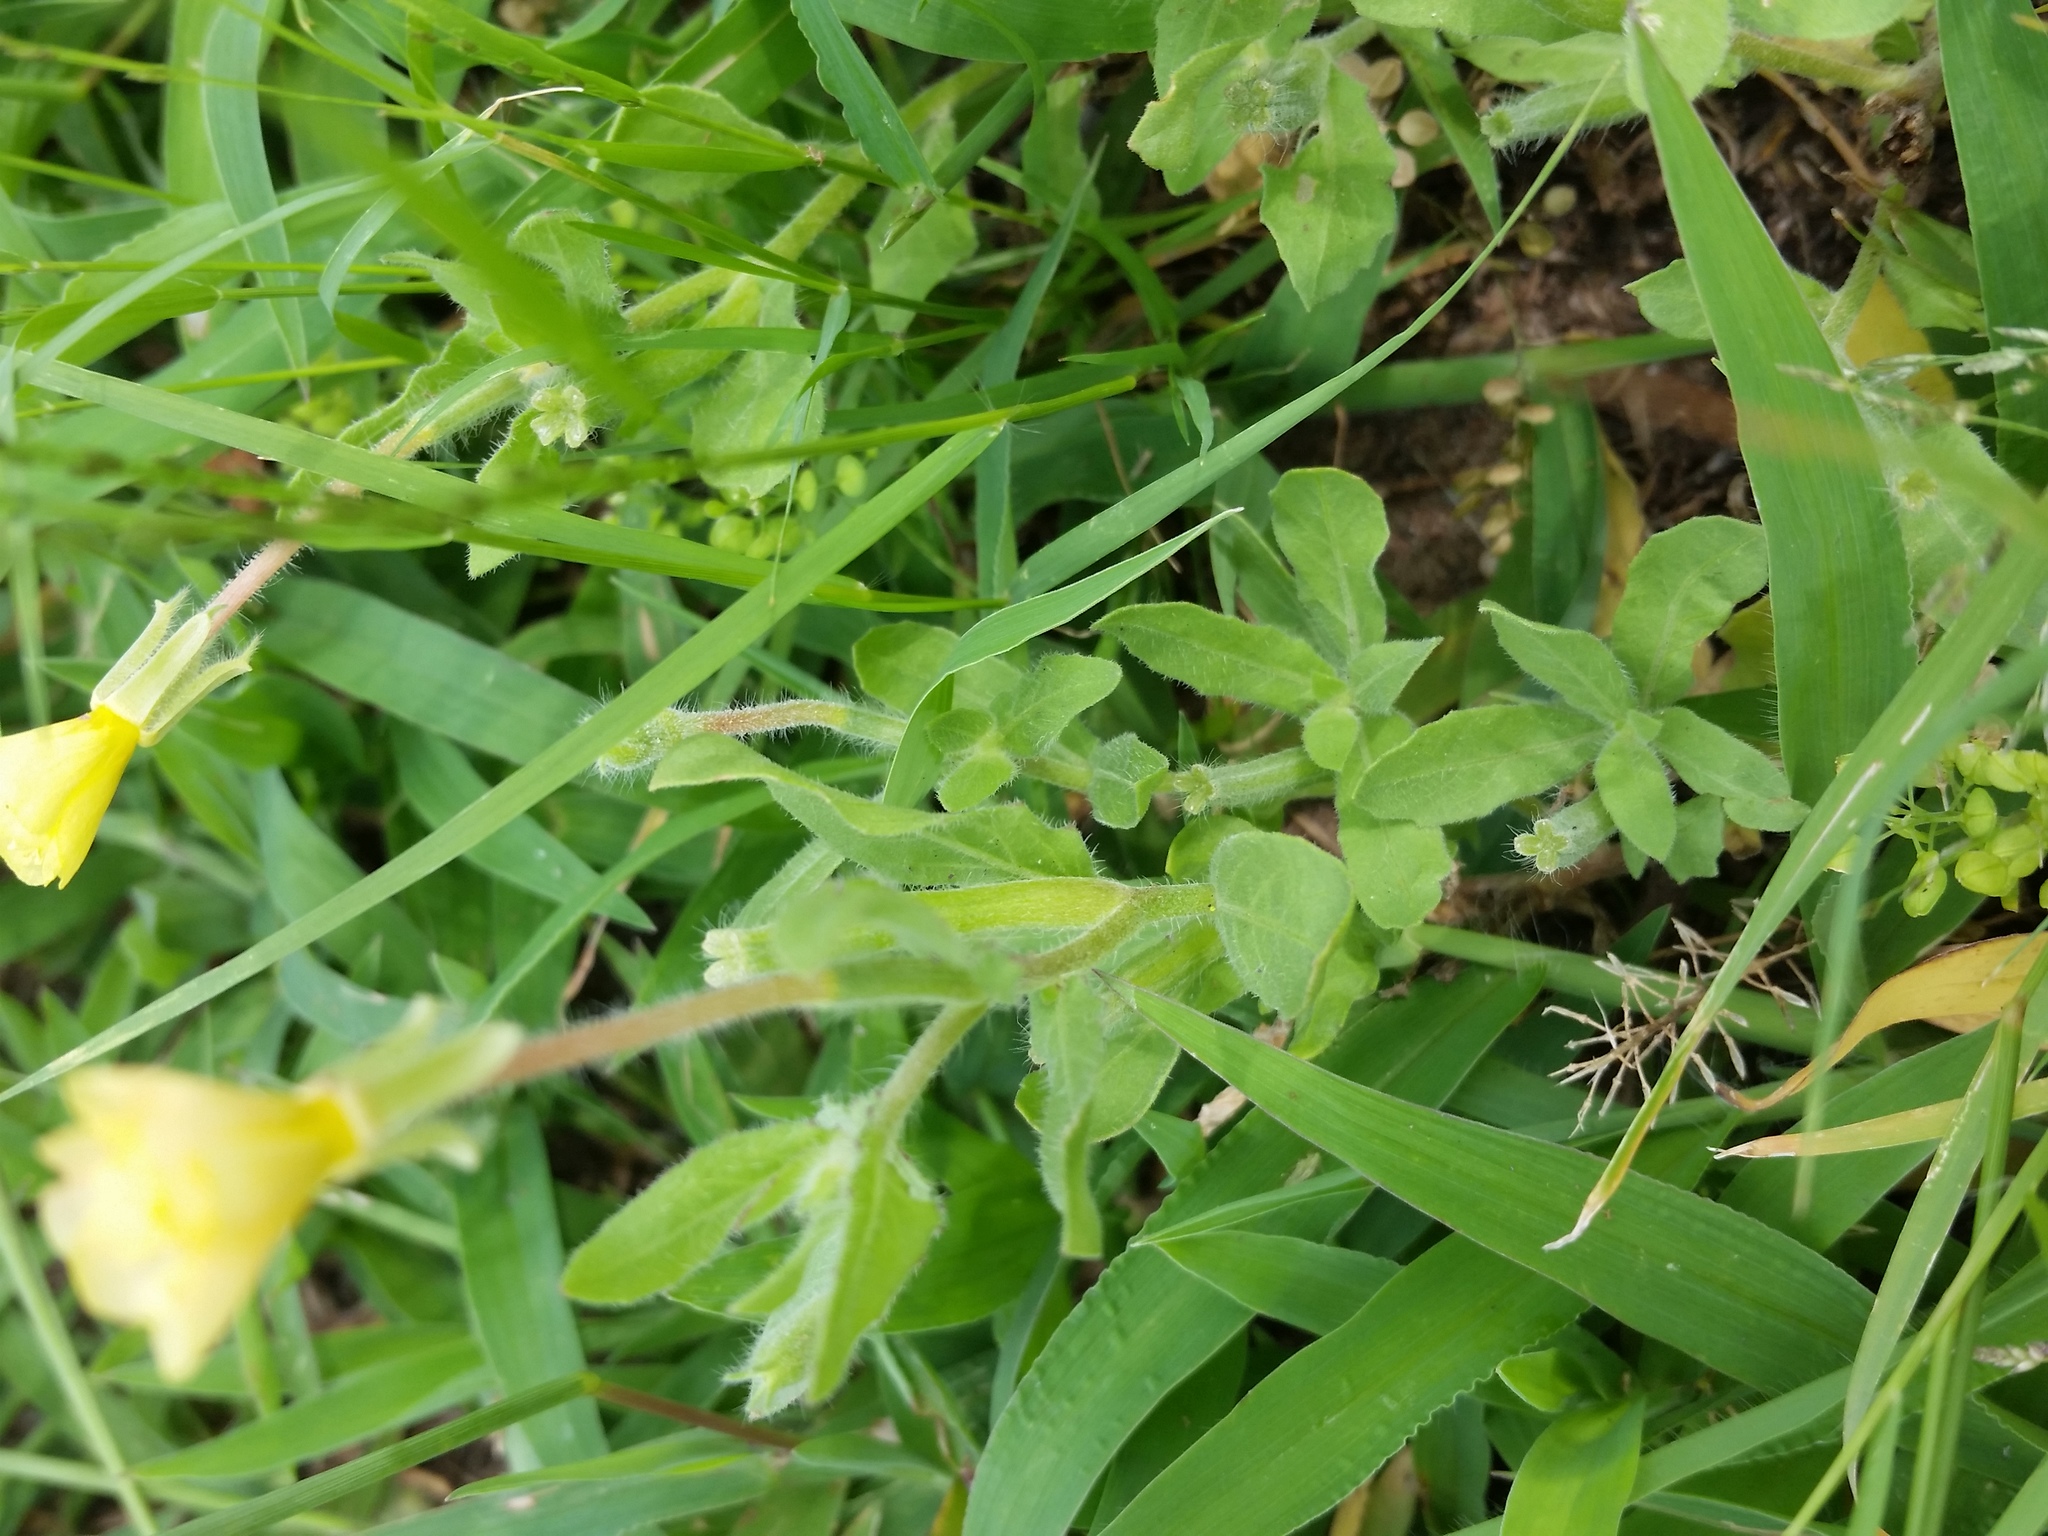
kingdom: Plantae
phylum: Tracheophyta
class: Magnoliopsida
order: Myrtales
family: Onagraceae
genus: Oenothera
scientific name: Oenothera laciniata
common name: Cut-leaved evening-primrose
